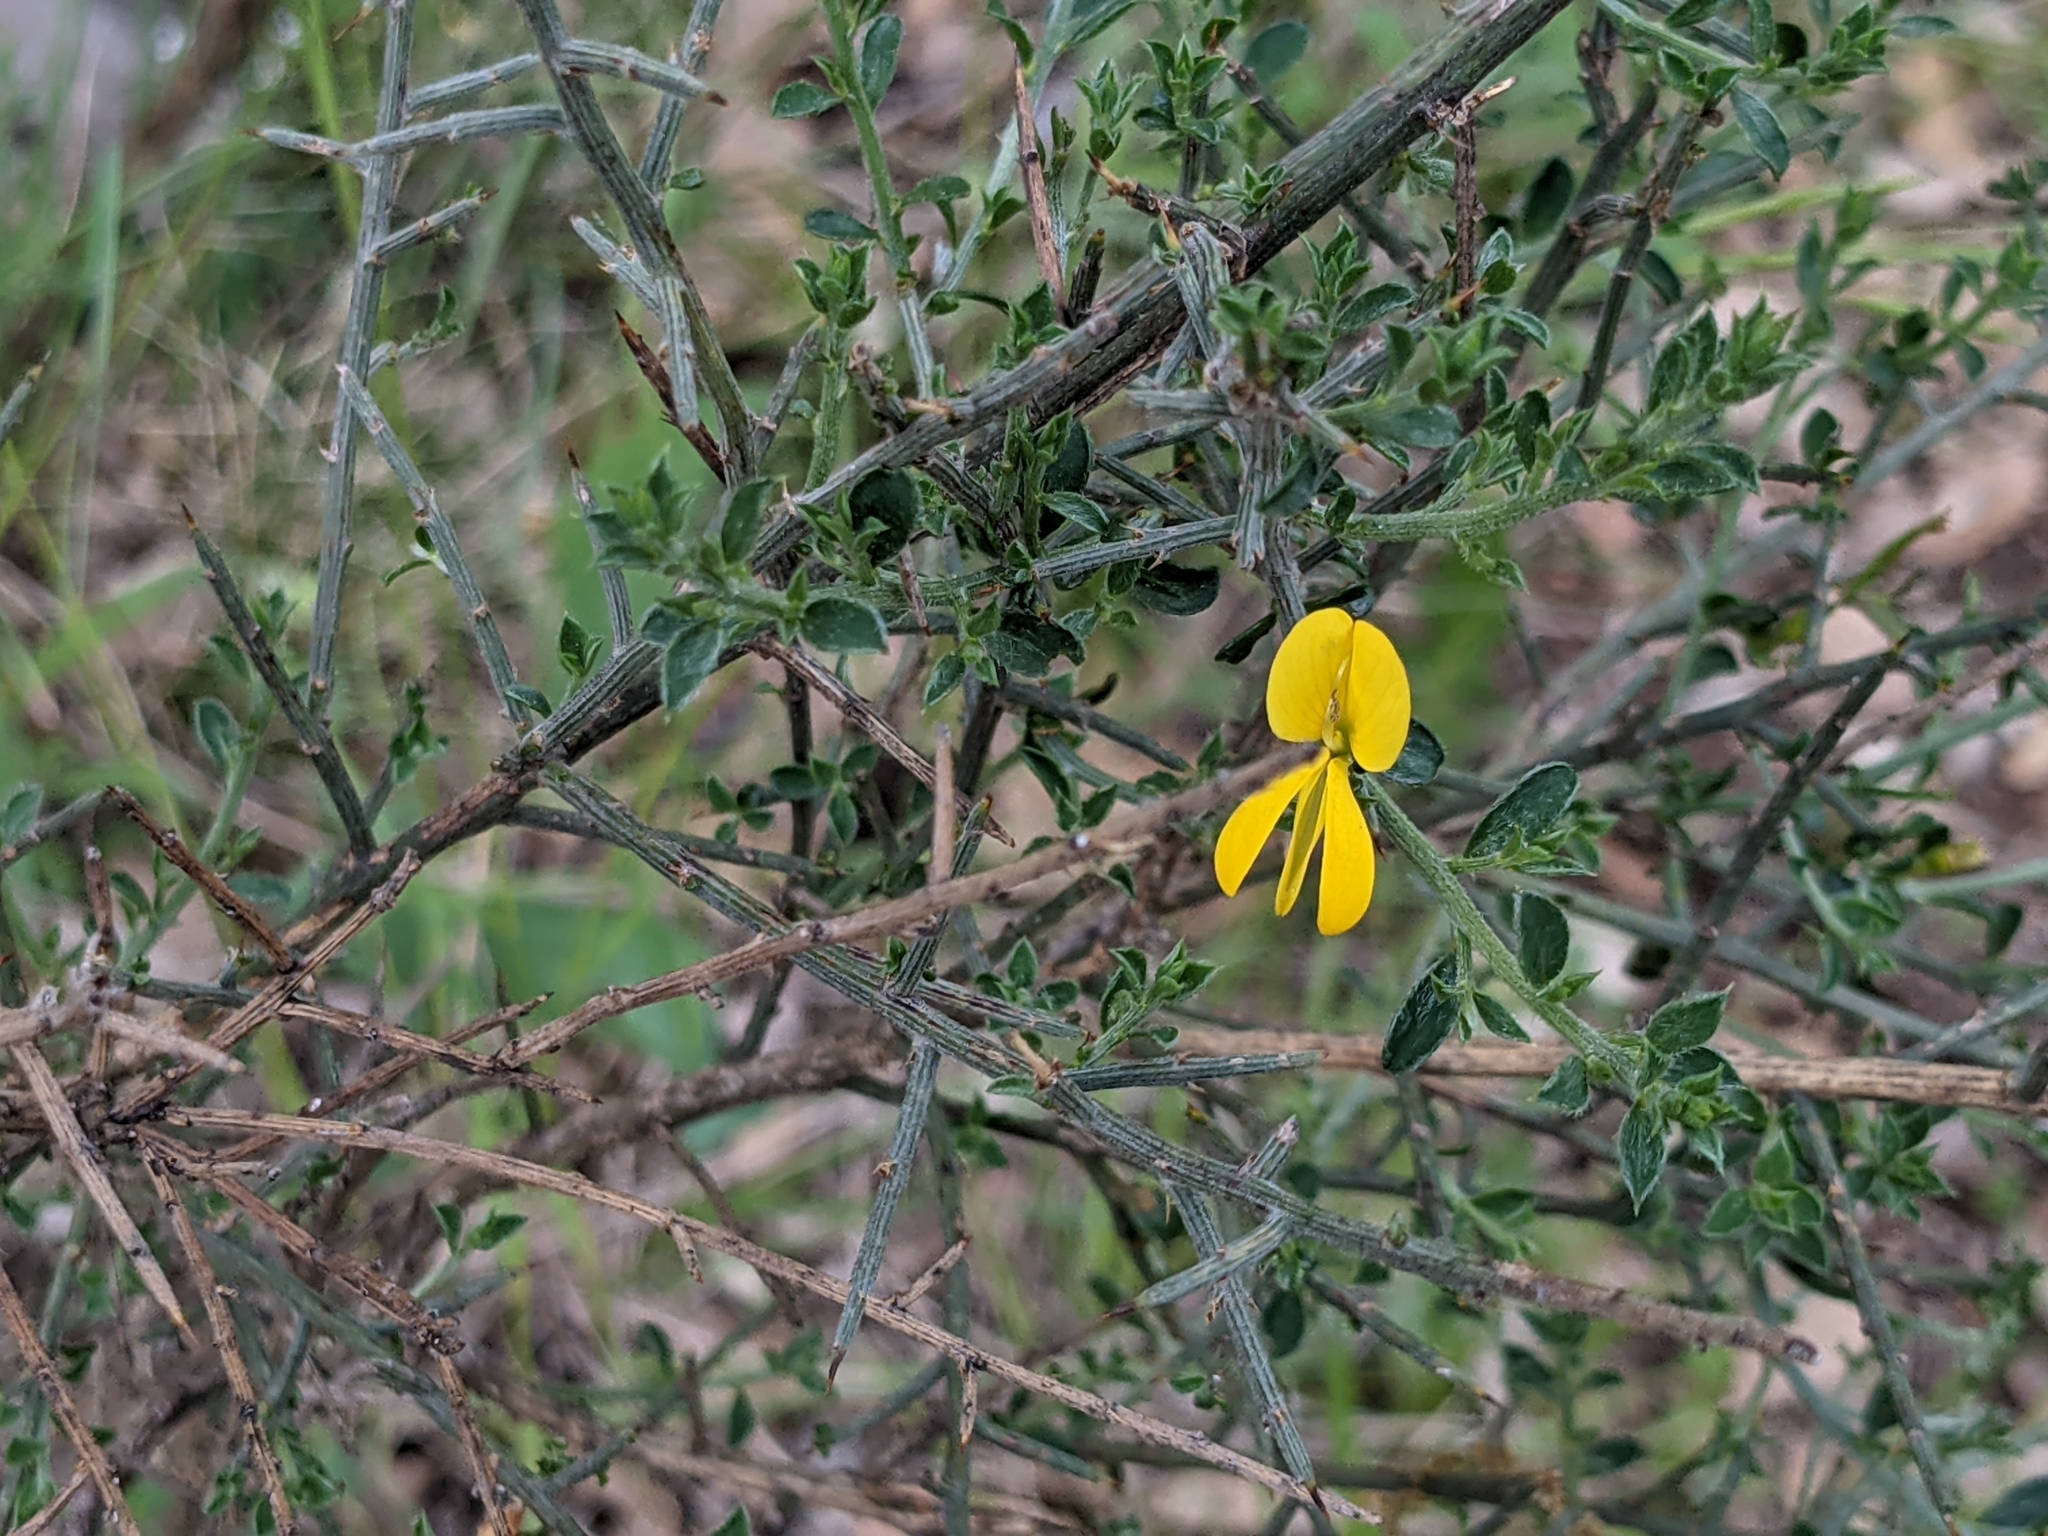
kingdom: Plantae
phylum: Tracheophyta
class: Magnoliopsida
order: Fabales
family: Fabaceae
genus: Genista
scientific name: Genista scorpius
